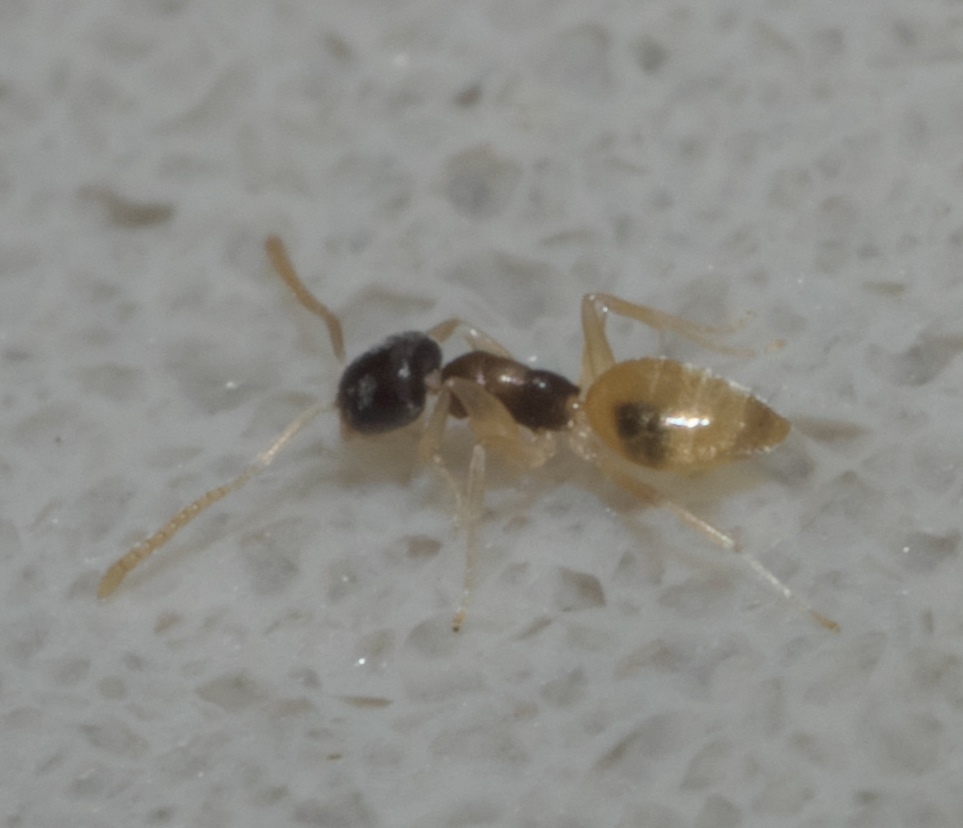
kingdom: Animalia
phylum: Arthropoda
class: Insecta
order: Hymenoptera
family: Formicidae
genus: Tapinoma
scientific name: Tapinoma melanocephalum
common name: Ghost ant
